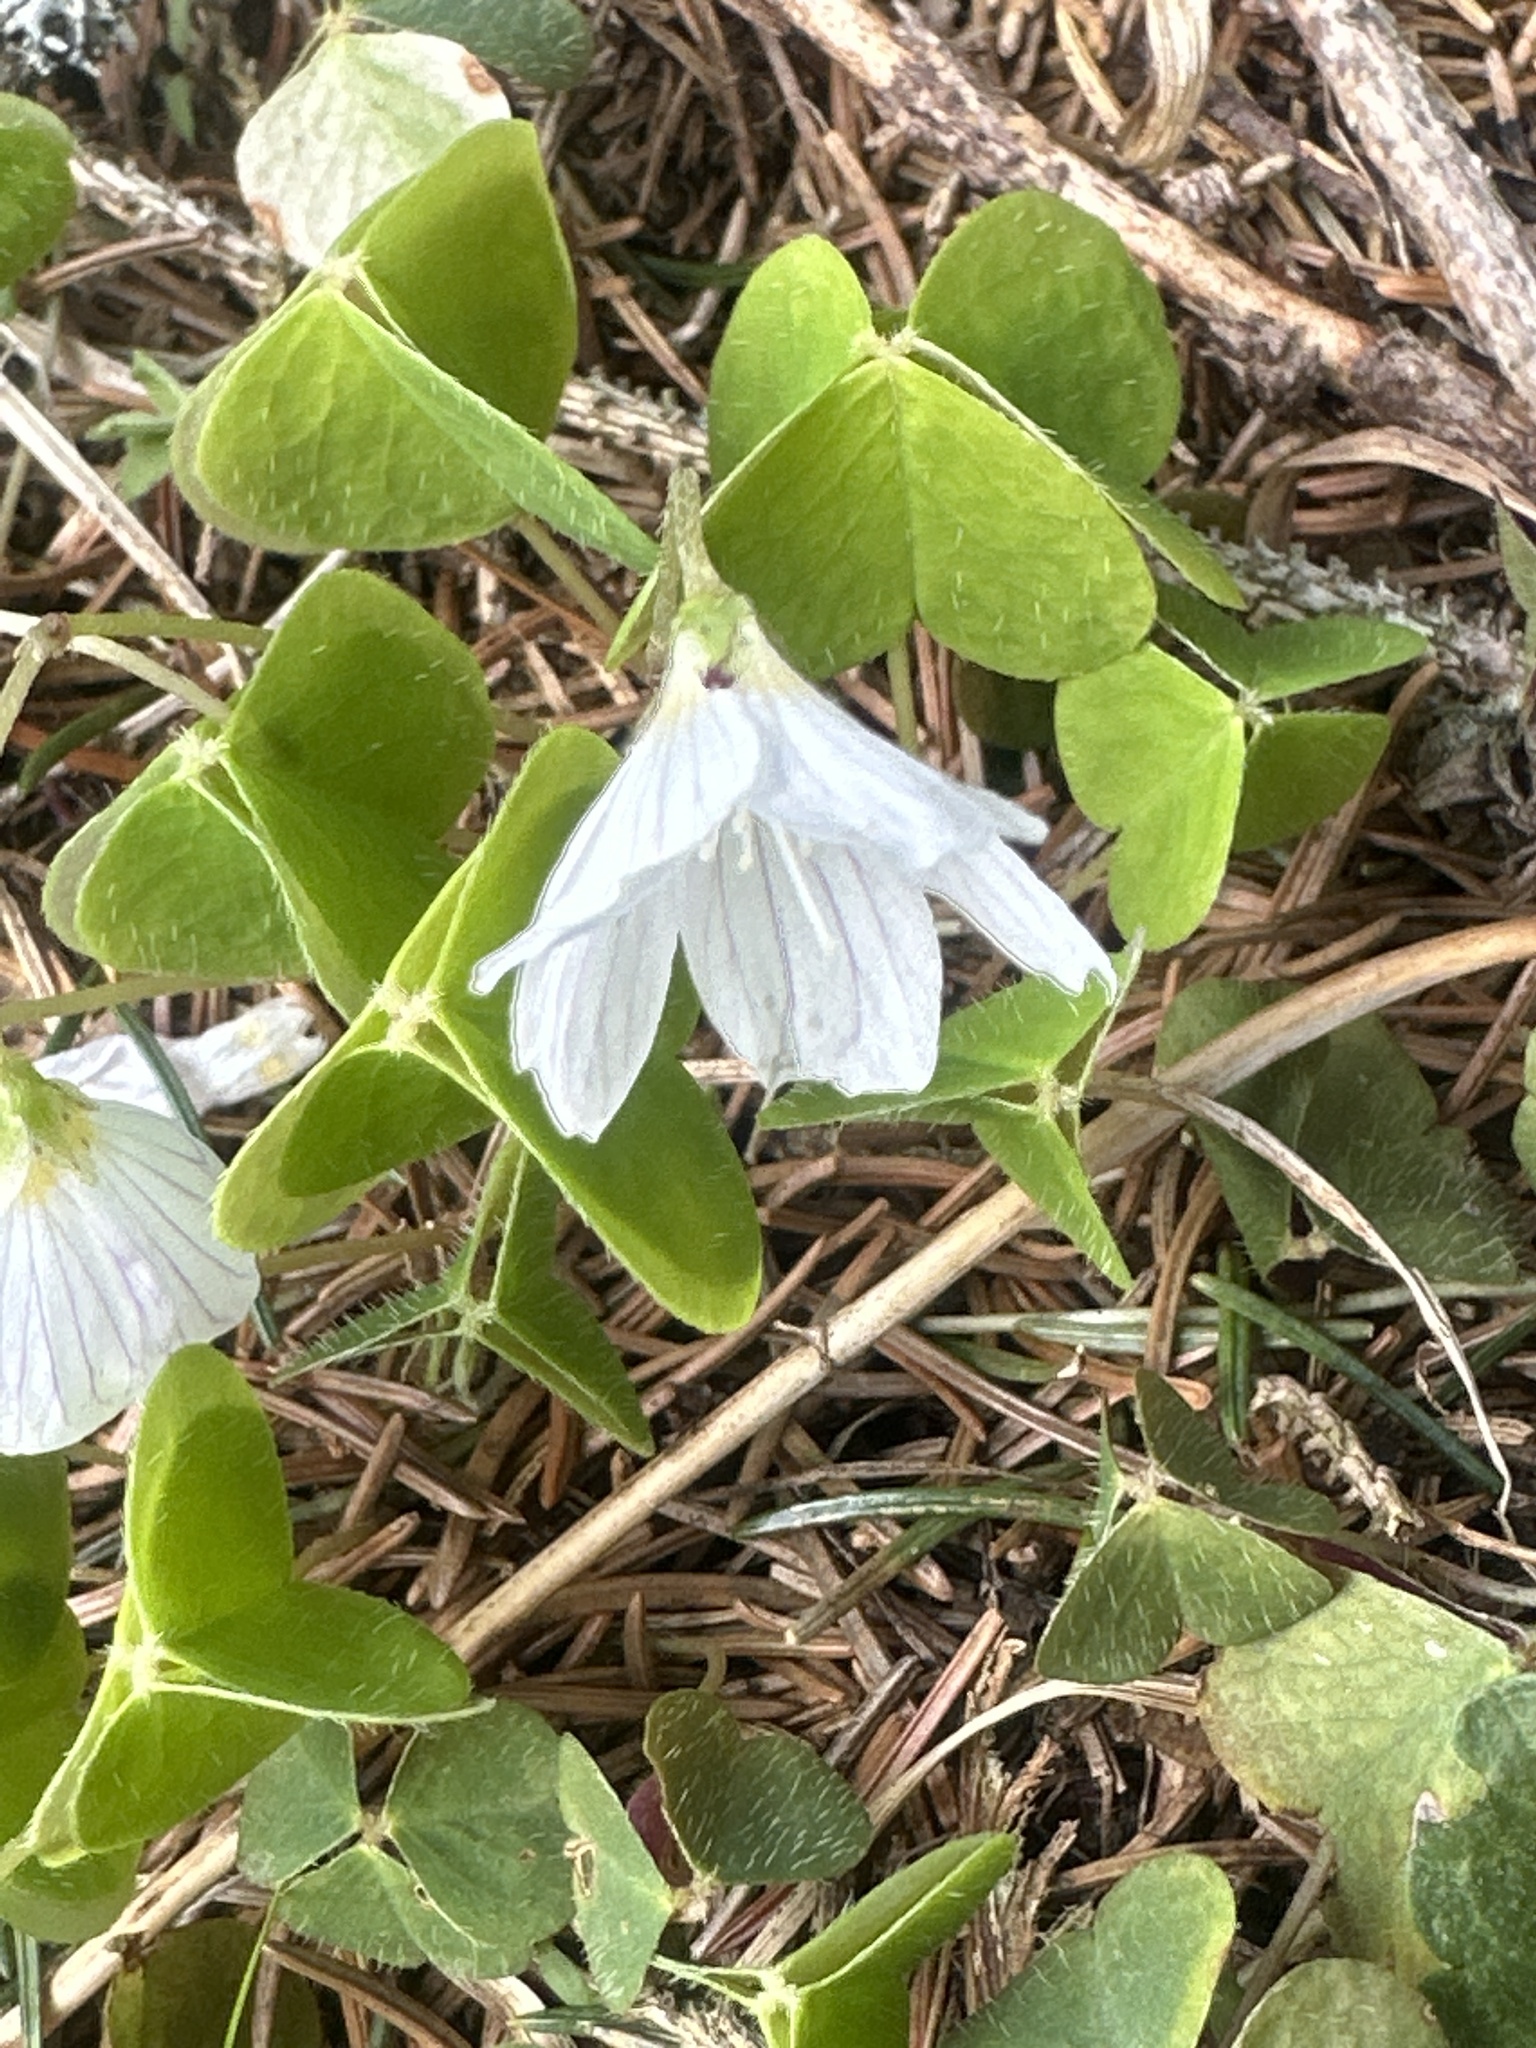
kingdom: Plantae
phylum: Tracheophyta
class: Magnoliopsida
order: Oxalidales
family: Oxalidaceae
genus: Oxalis
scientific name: Oxalis acetosella
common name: Wood-sorrel
